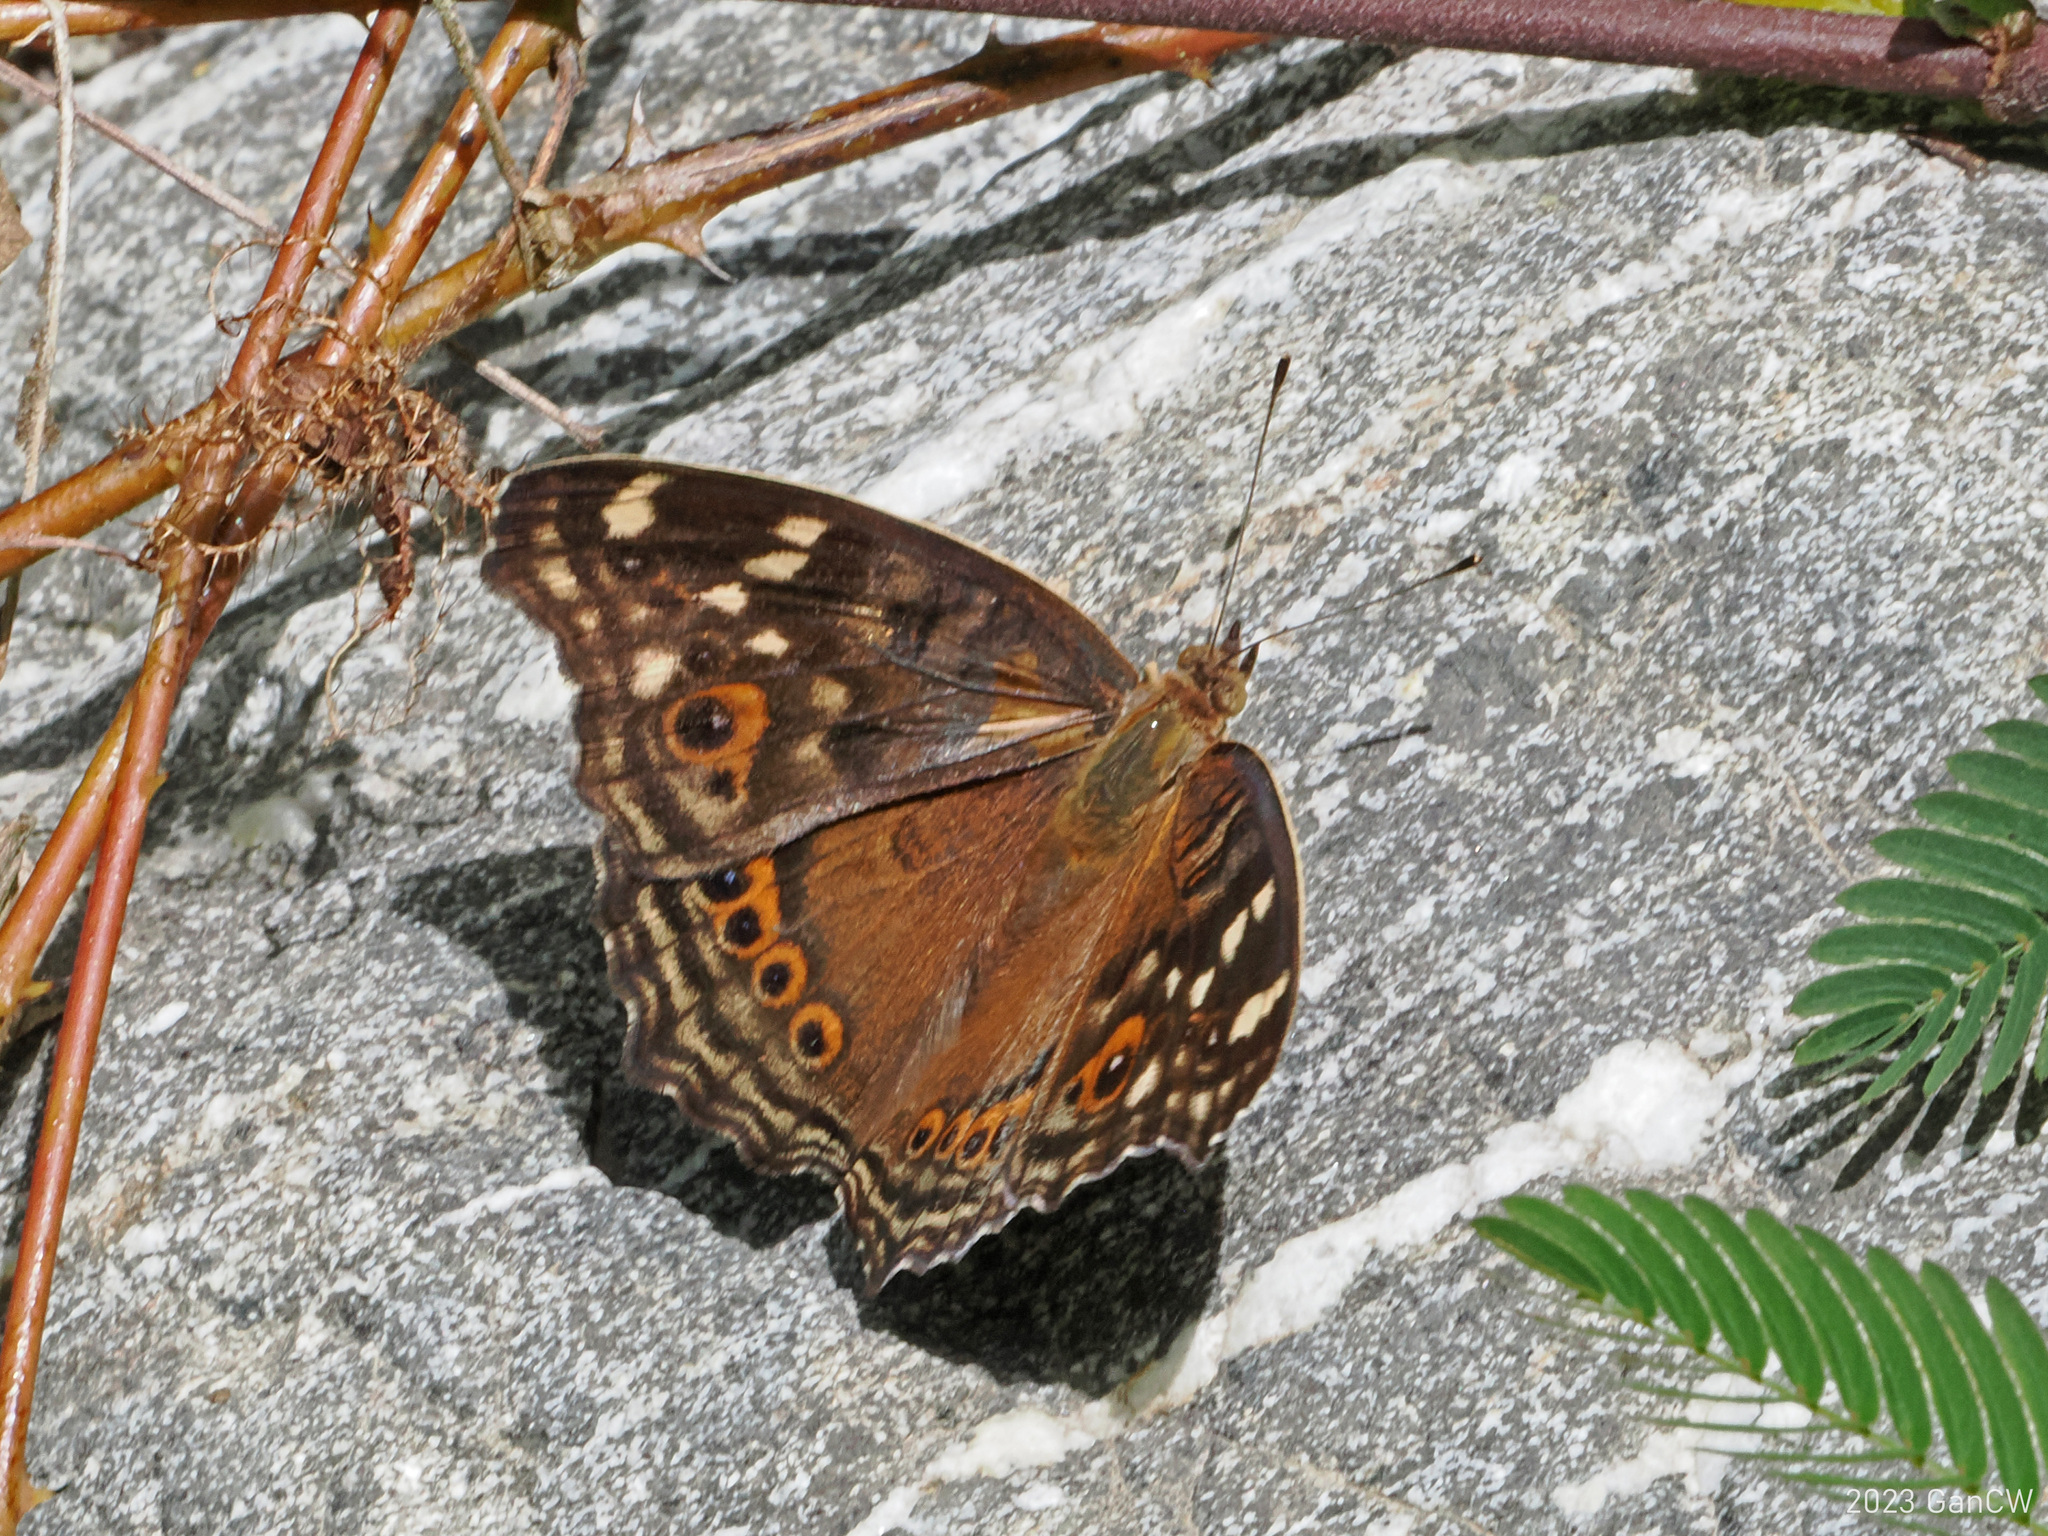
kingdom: Animalia
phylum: Arthropoda
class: Insecta
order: Lepidoptera
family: Nymphalidae
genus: Junonia
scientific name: Junonia erigone
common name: Northern argus
